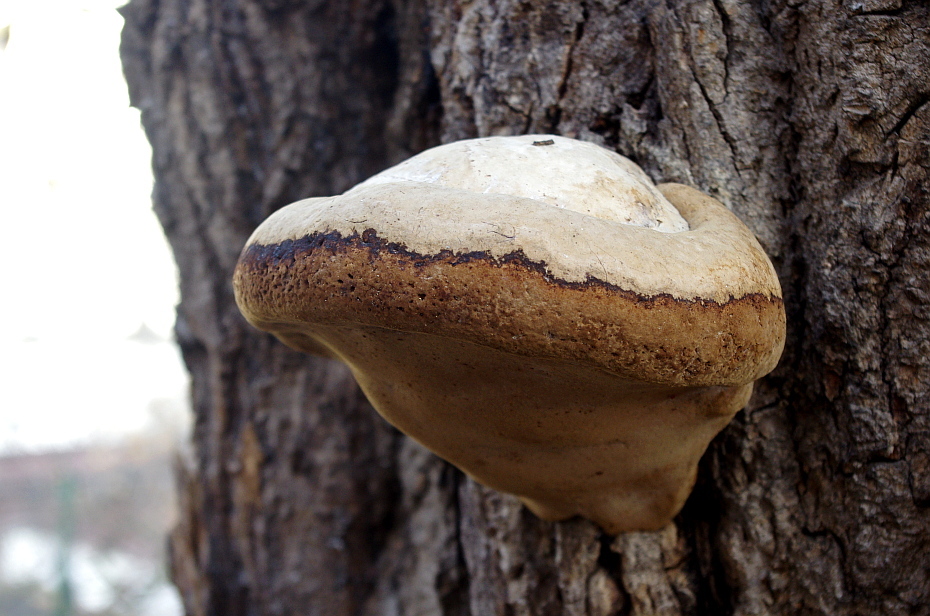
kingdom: Fungi
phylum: Basidiomycota
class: Agaricomycetes
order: Polyporales
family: Polyporaceae
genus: Fomes
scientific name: Fomes fomentarius
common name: Hoof fungus
